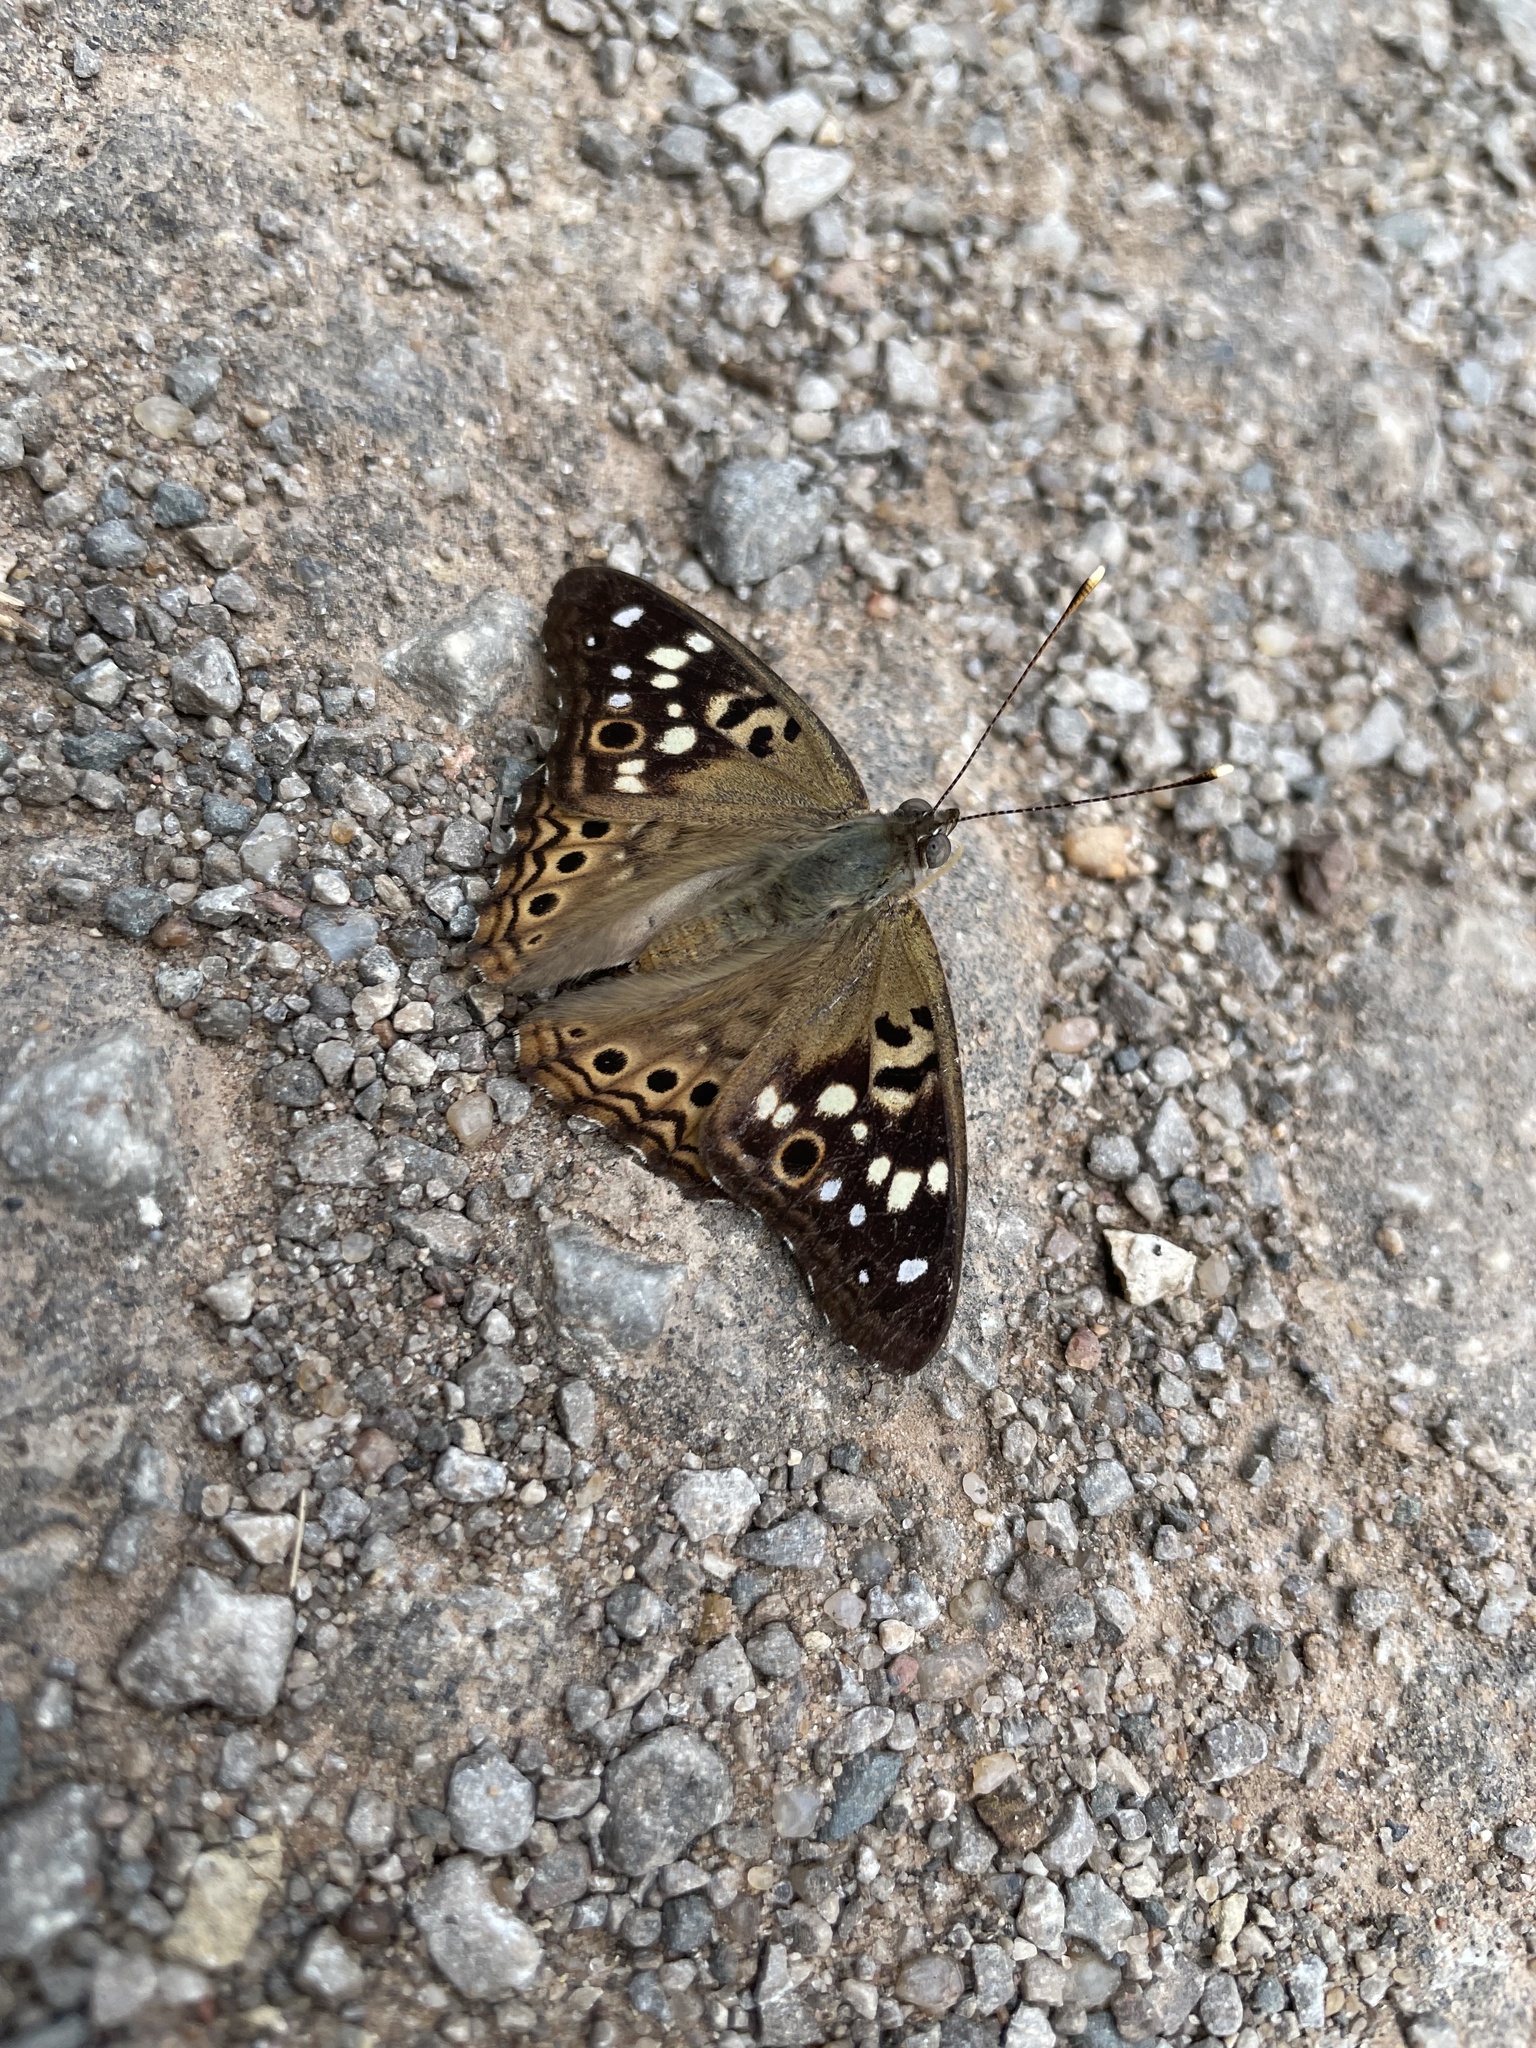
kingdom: Animalia
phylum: Arthropoda
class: Insecta
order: Lepidoptera
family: Nymphalidae
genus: Asterocampa
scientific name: Asterocampa celtis
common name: Hackberry emperor
